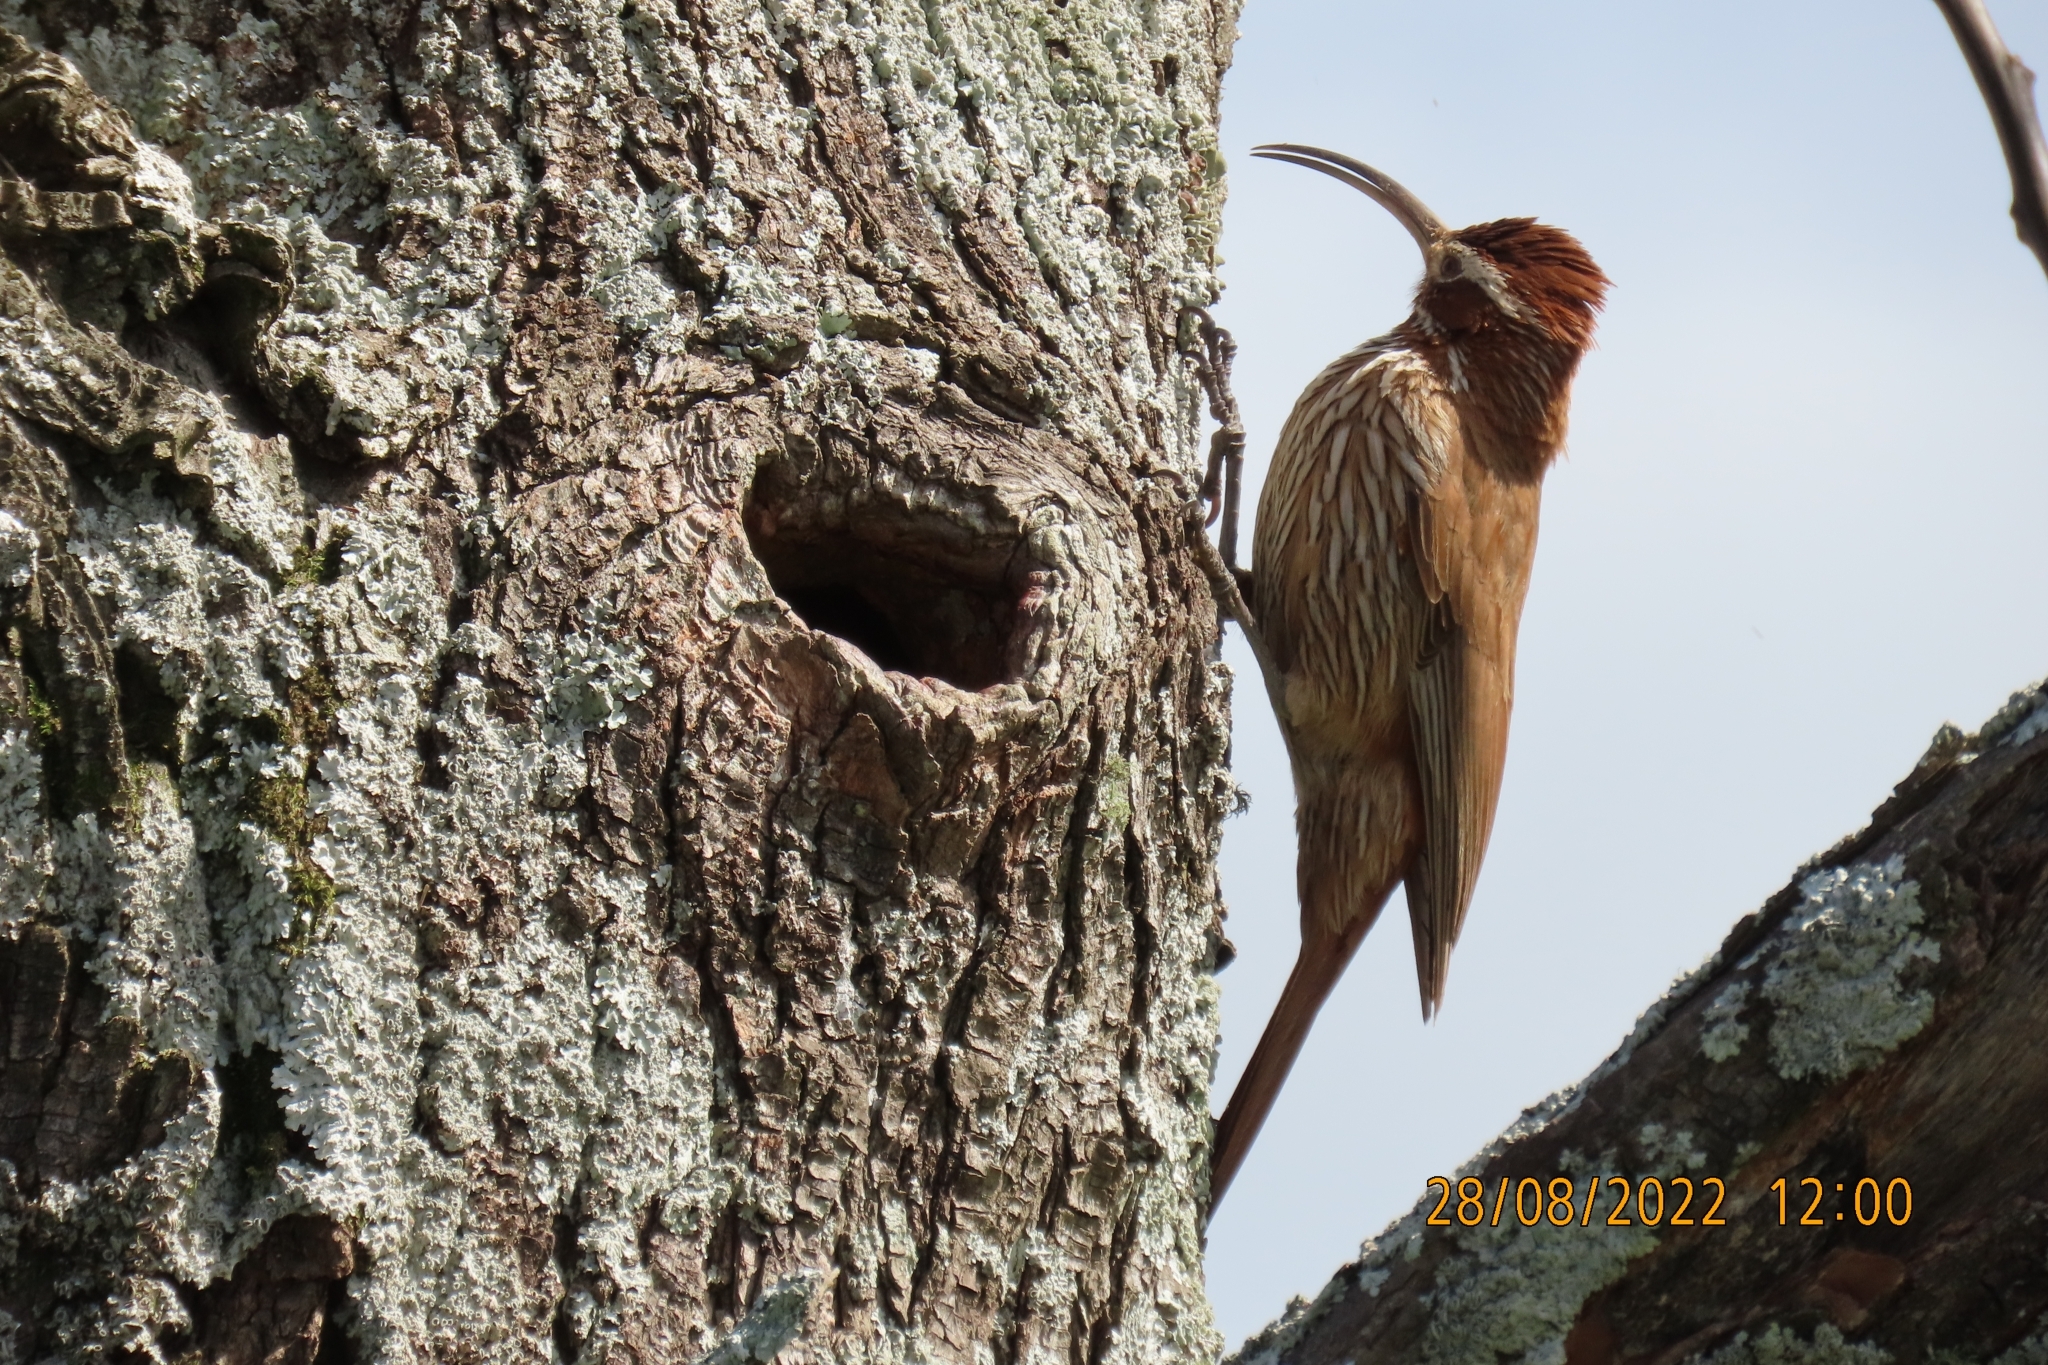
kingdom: Animalia
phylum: Chordata
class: Aves
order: Passeriformes
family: Furnariidae
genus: Drymornis
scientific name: Drymornis bridgesii
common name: Scimitar-billed woodcreeper
